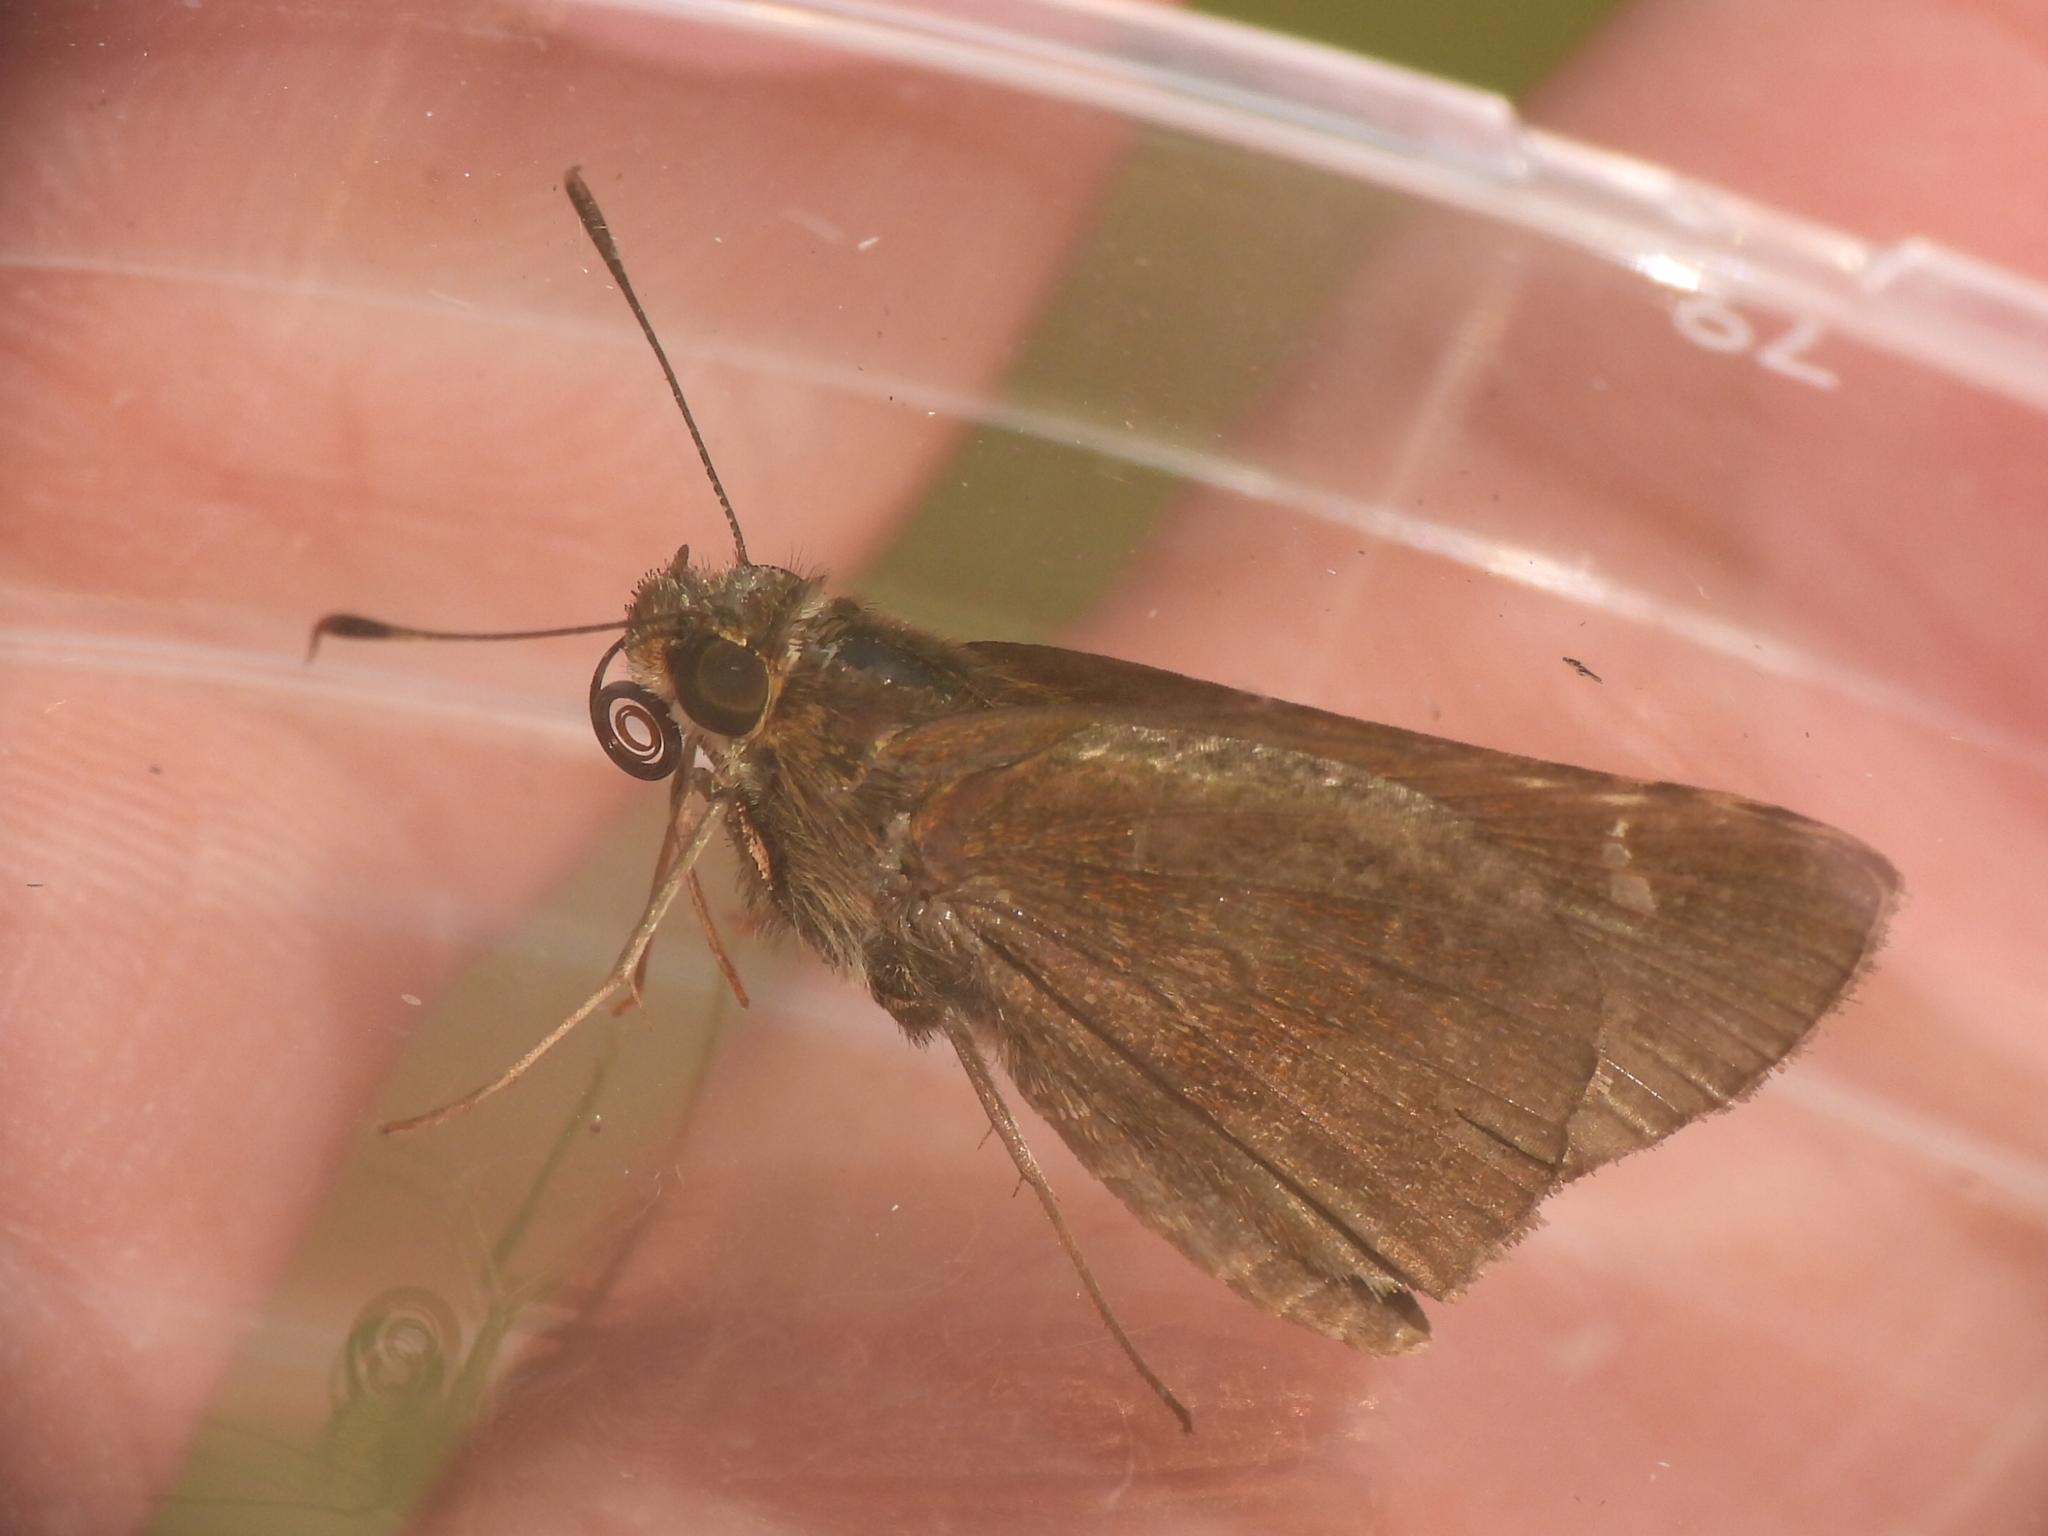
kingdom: Animalia
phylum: Arthropoda
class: Insecta
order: Lepidoptera
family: Hesperiidae
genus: Lerema
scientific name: Lerema accius
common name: Clouded skipper
